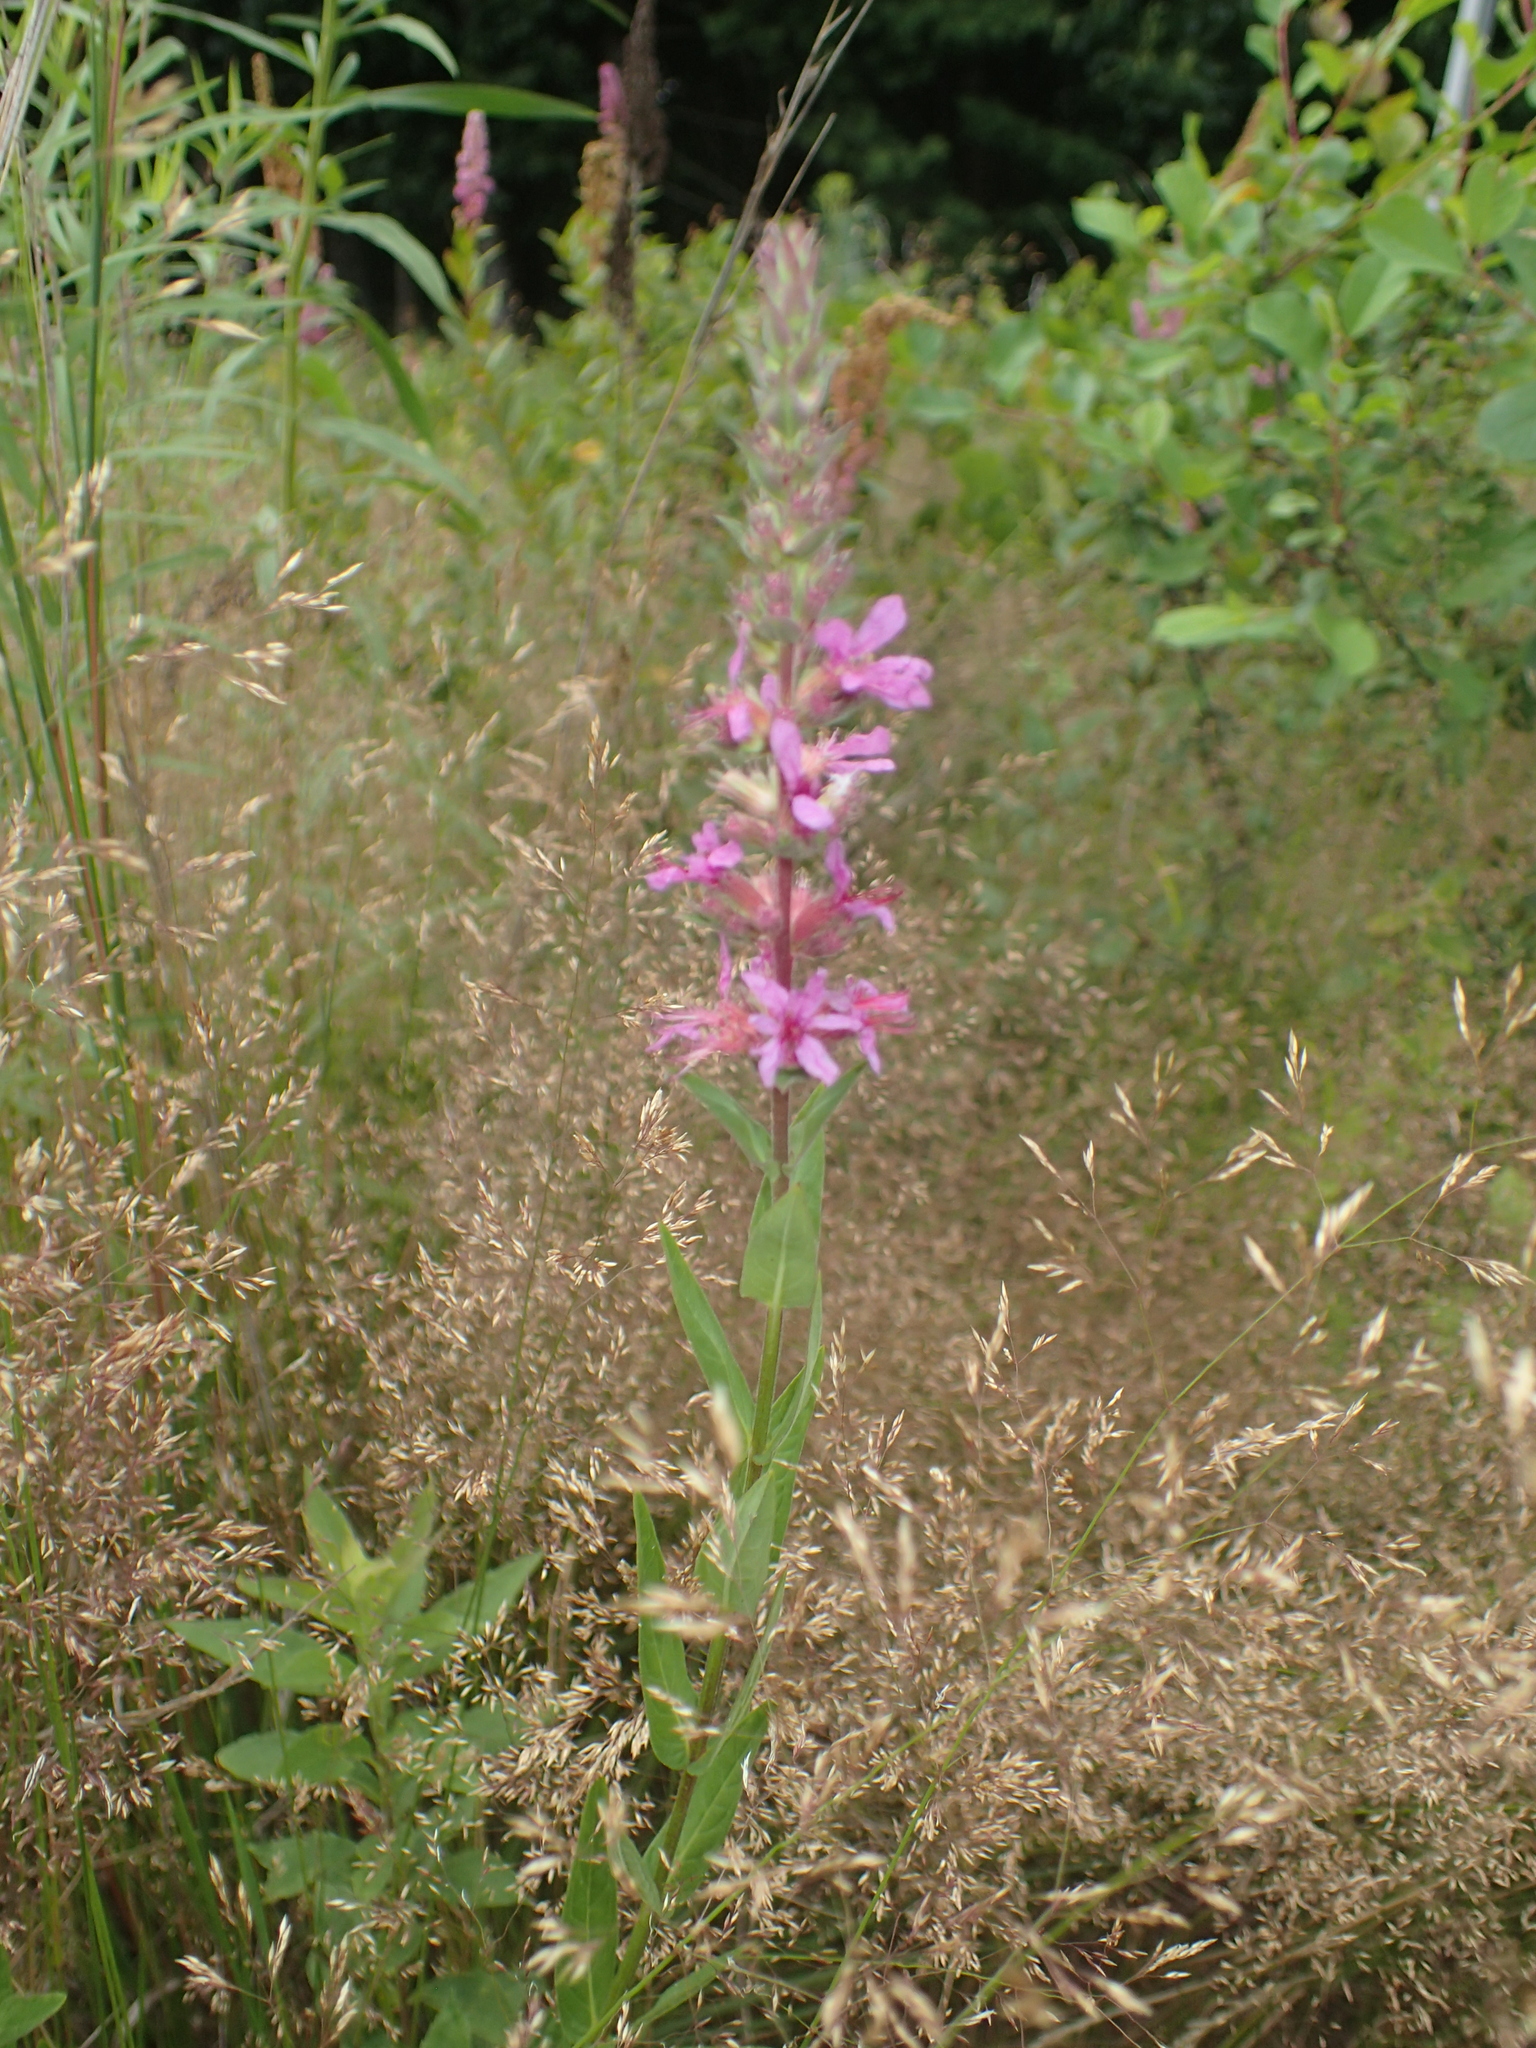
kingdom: Plantae
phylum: Tracheophyta
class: Magnoliopsida
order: Myrtales
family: Lythraceae
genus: Lythrum
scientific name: Lythrum salicaria
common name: Purple loosestrife
